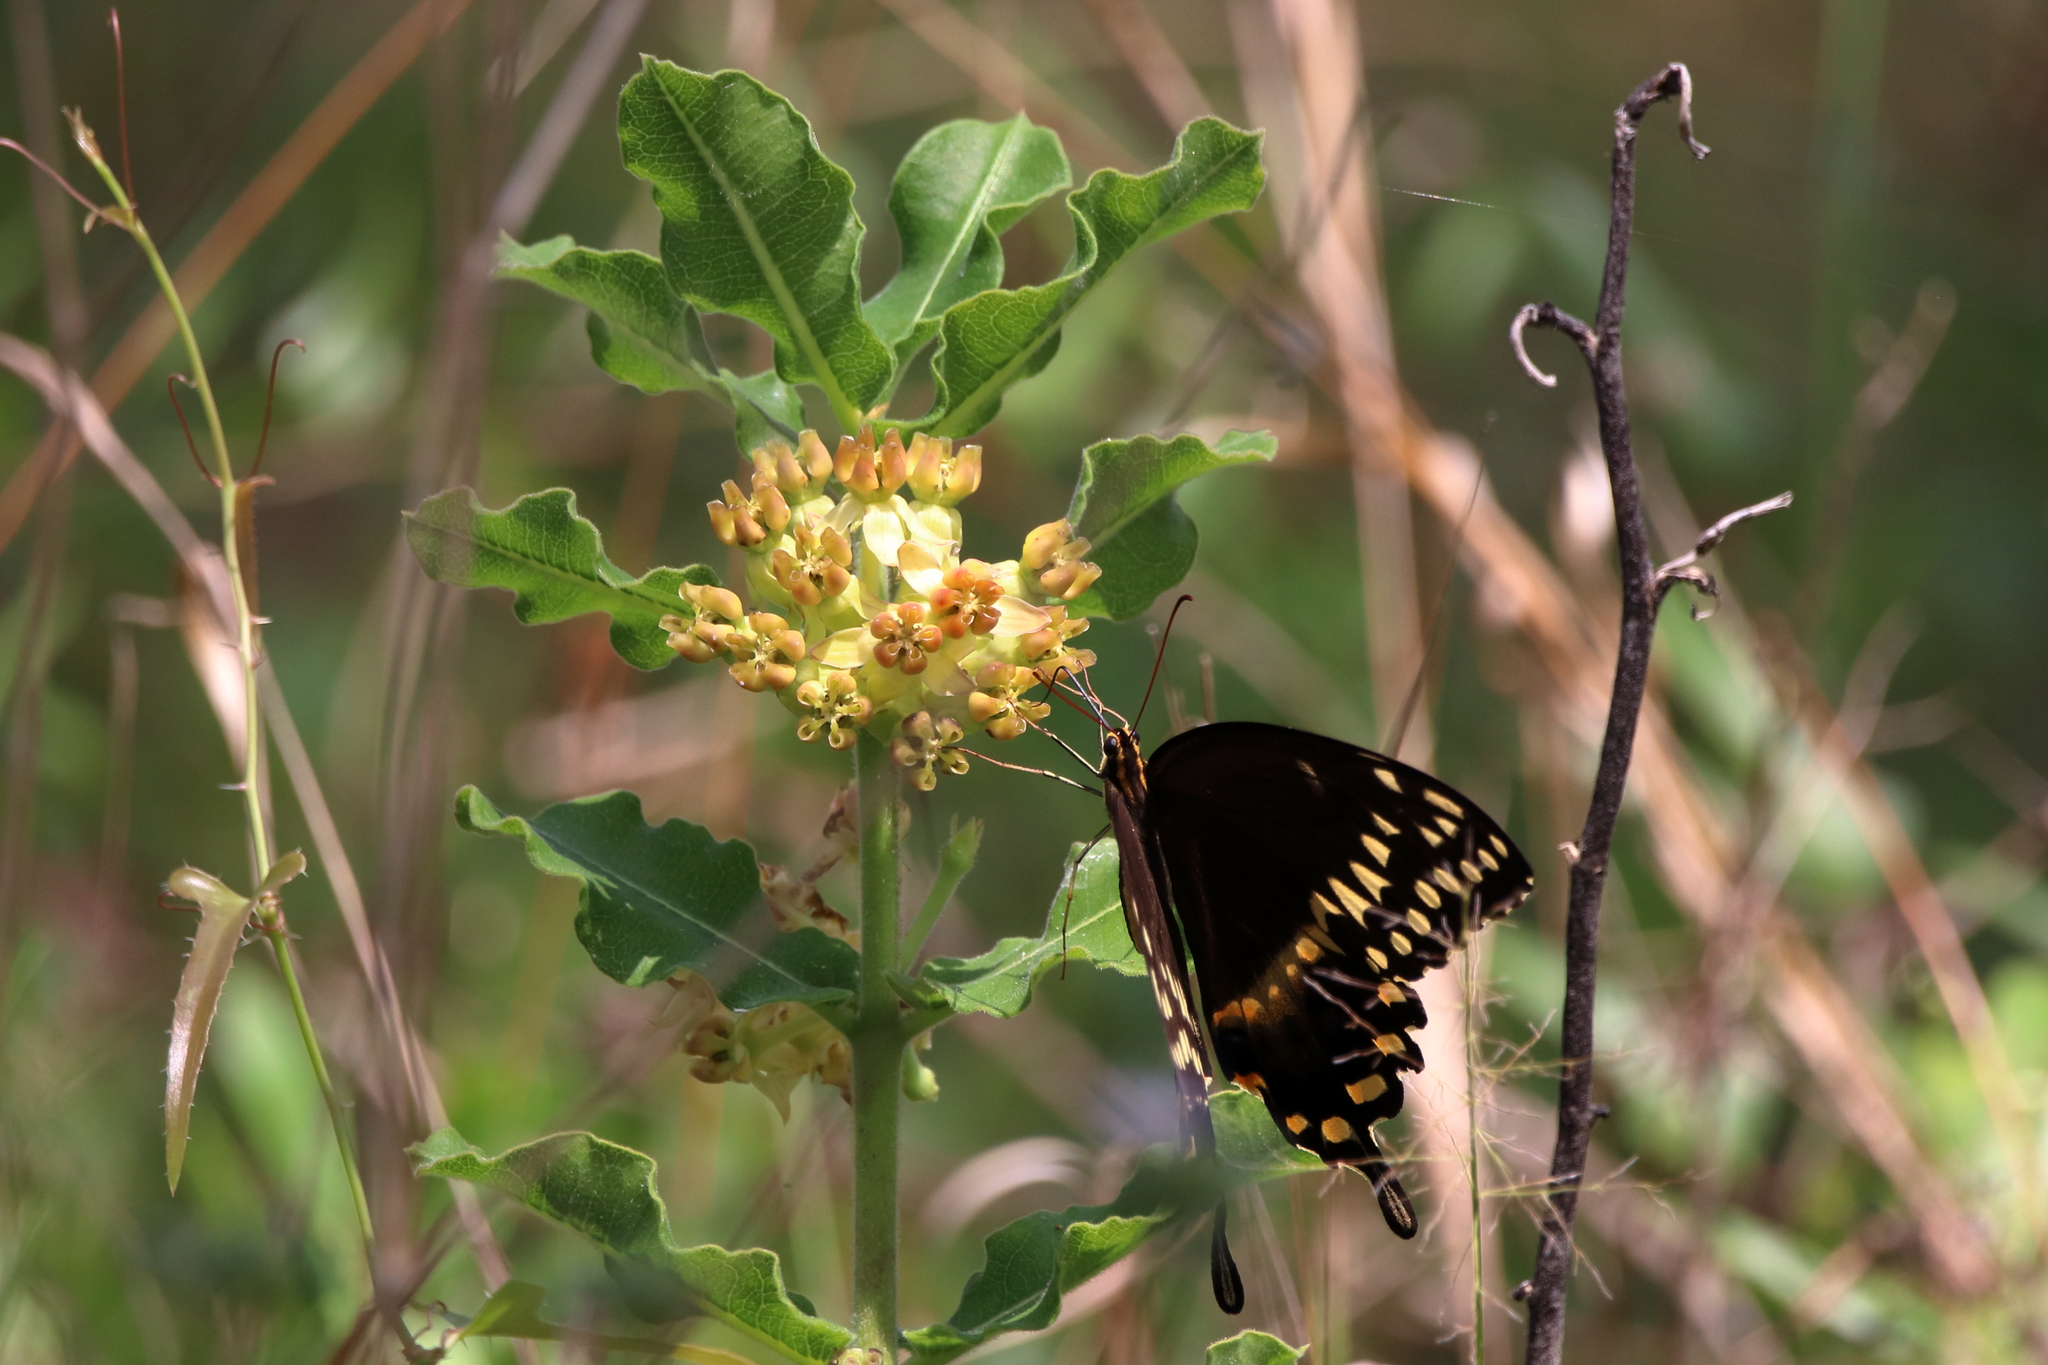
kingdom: Animalia
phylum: Arthropoda
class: Insecta
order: Lepidoptera
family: Papilionidae
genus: Papilio
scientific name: Papilio palamedes
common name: Palamedes swallowtail
